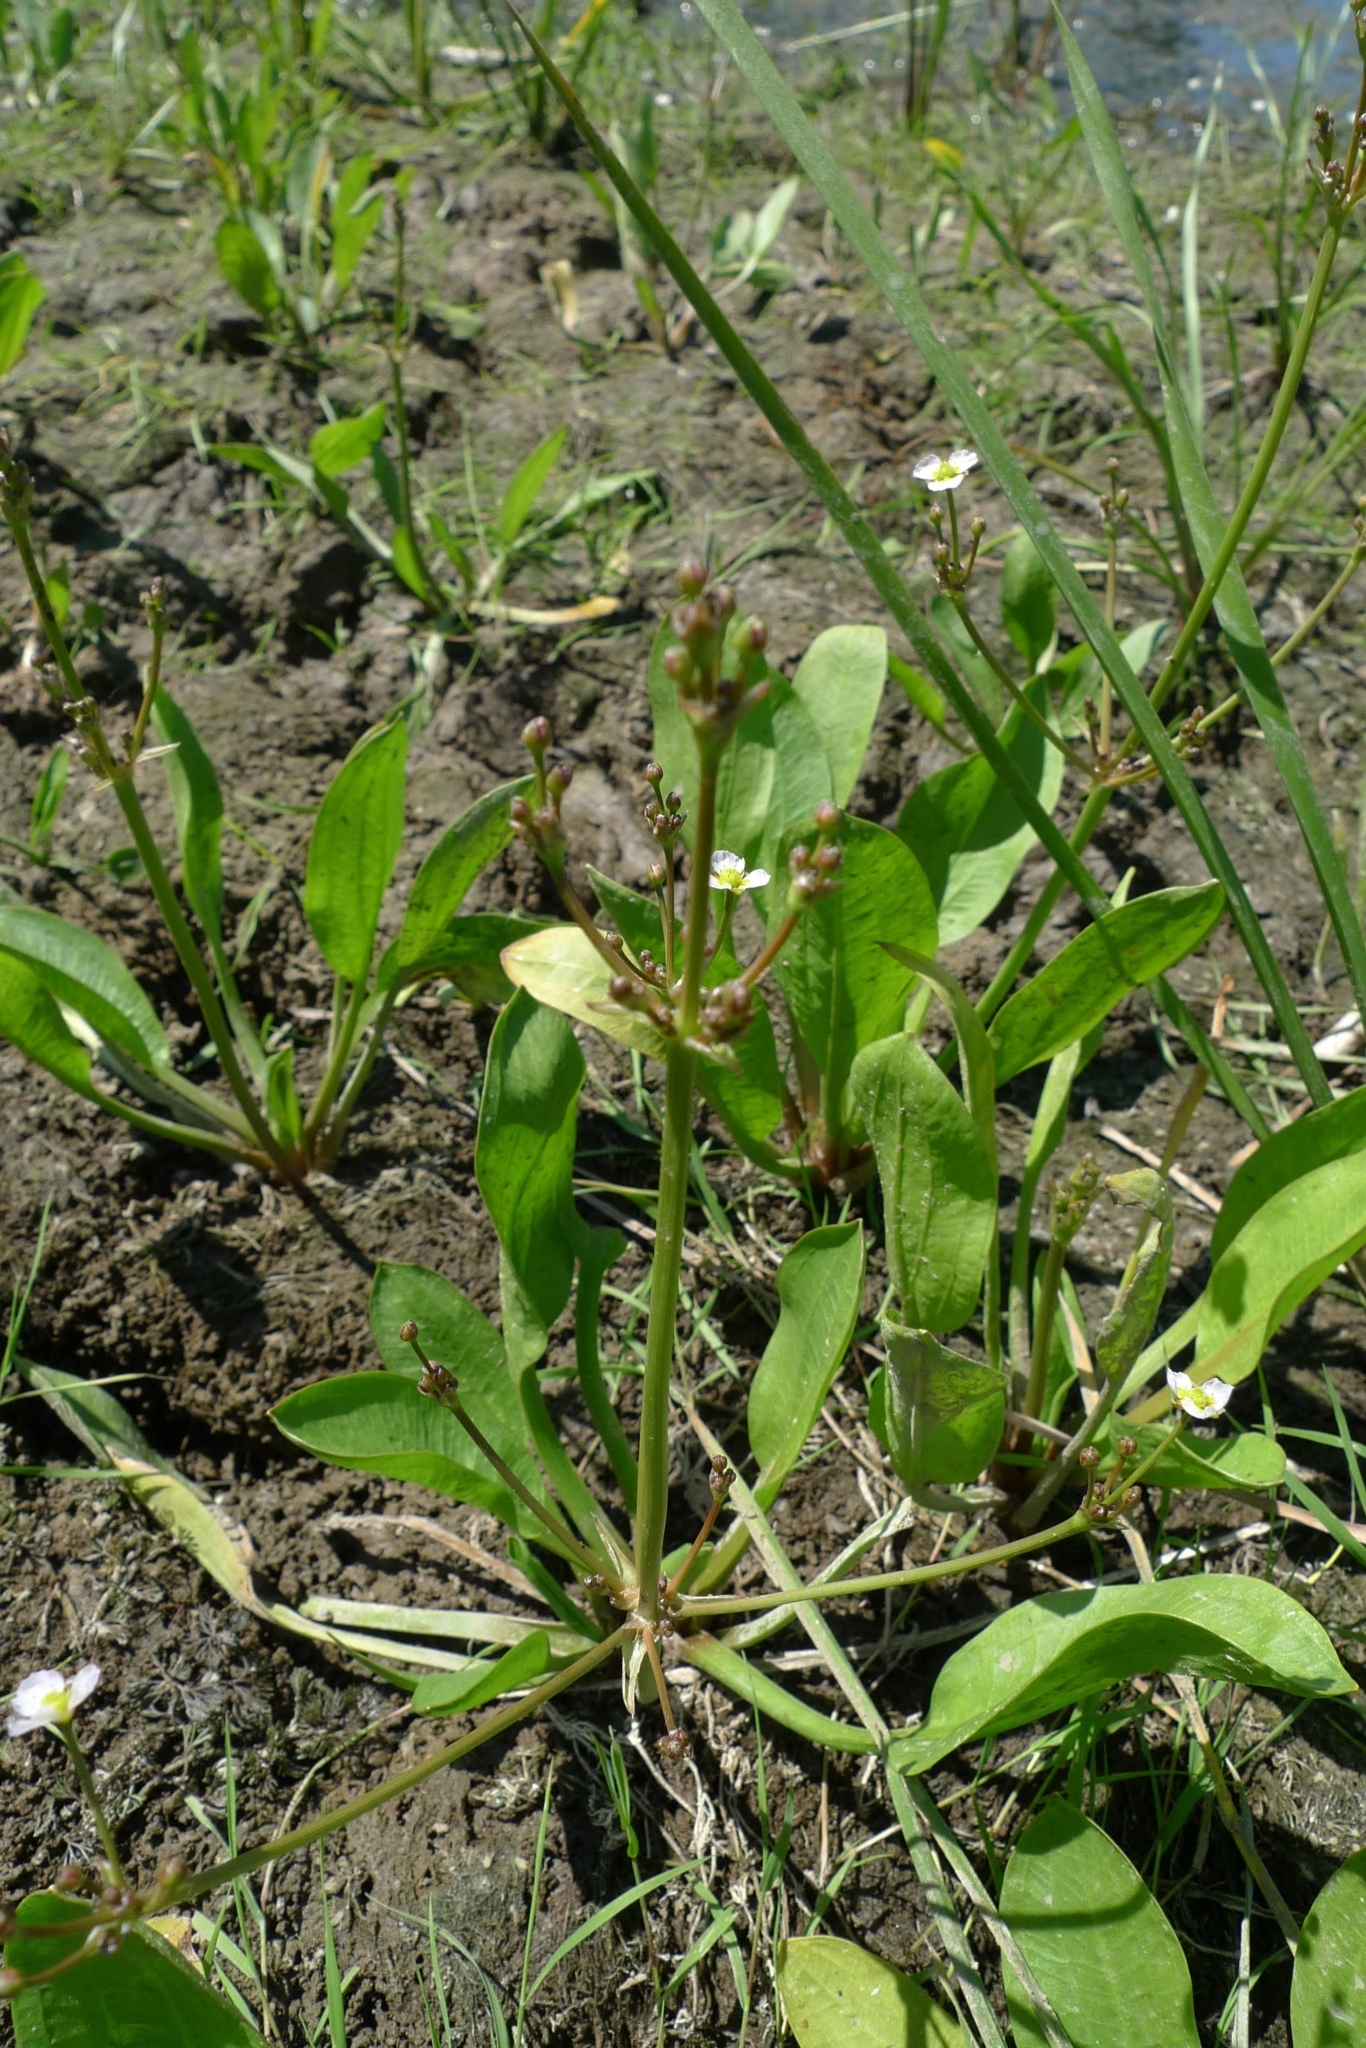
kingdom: Plantae
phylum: Tracheophyta
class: Liliopsida
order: Alismatales
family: Alismataceae
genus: Alisma
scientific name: Alisma plantago-aquatica
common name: Water-plantain
